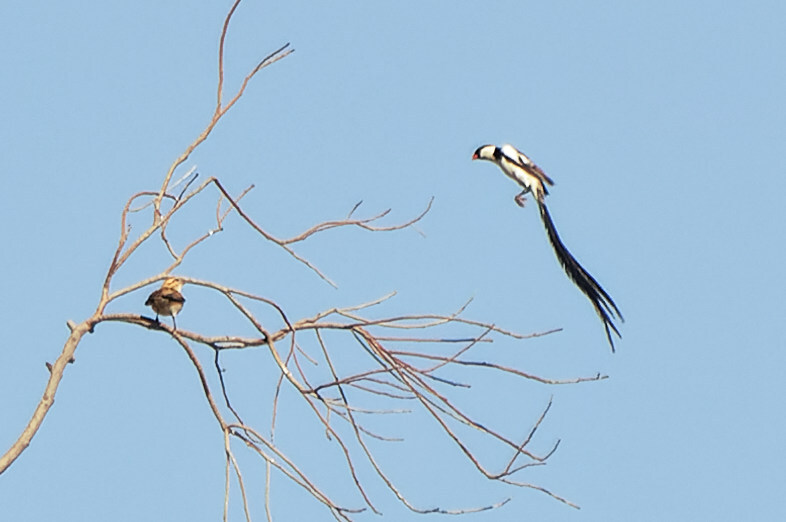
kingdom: Animalia
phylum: Chordata
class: Aves
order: Passeriformes
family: Viduidae
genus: Vidua
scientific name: Vidua macroura
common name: Pin-tailed whydah
